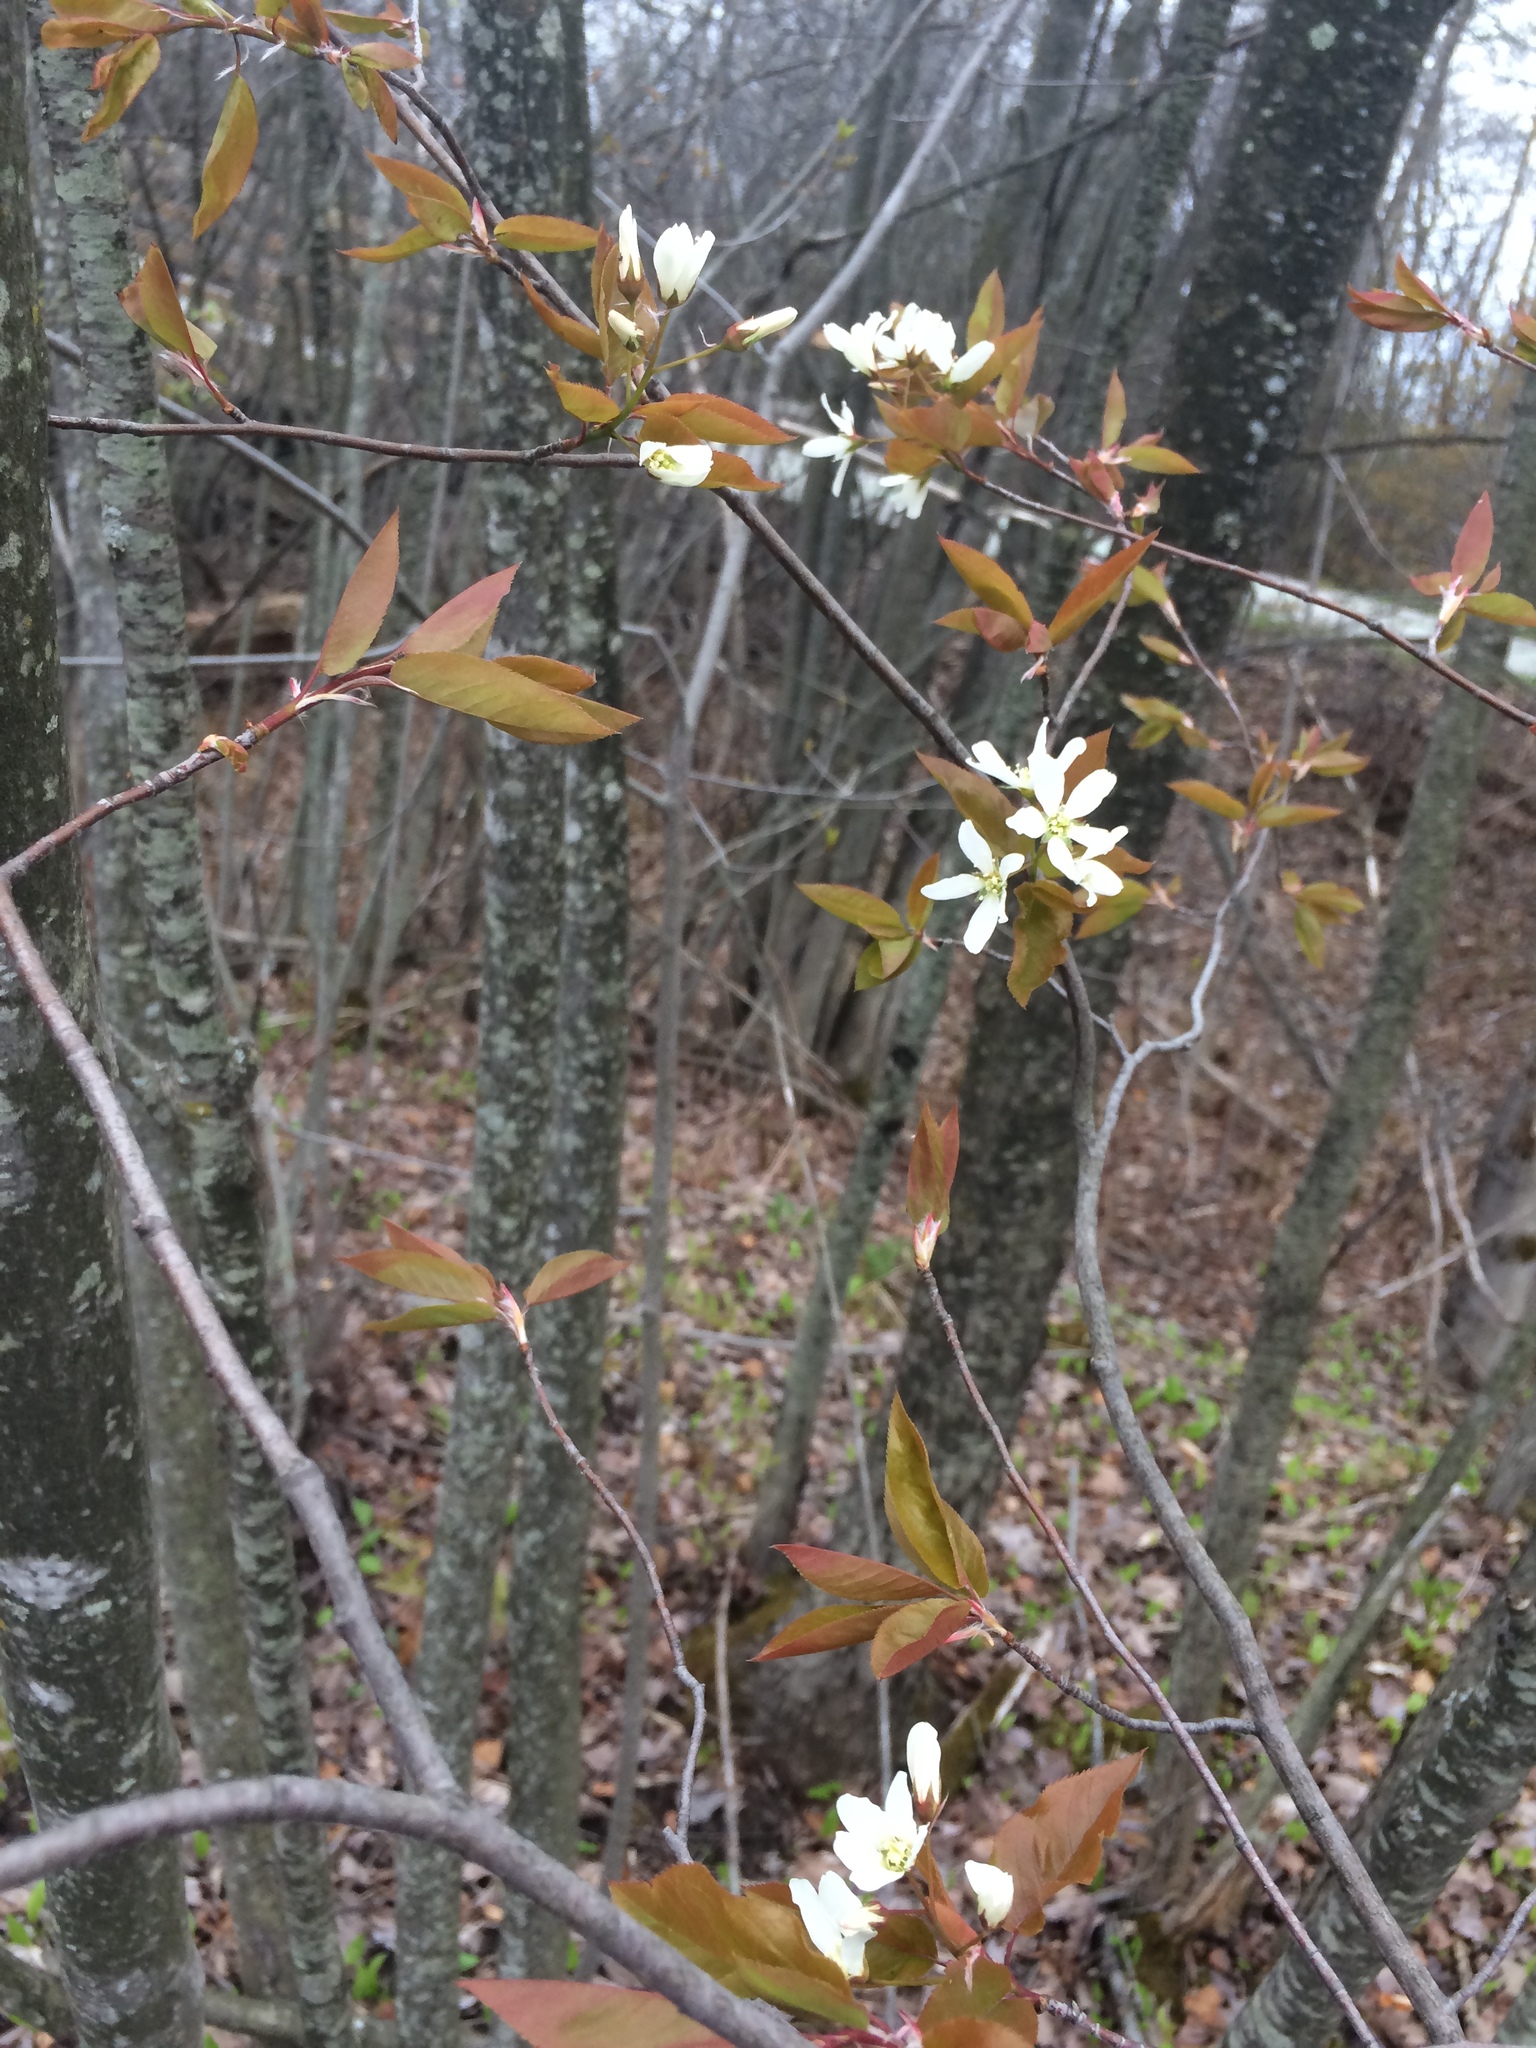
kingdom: Plantae
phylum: Tracheophyta
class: Magnoliopsida
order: Rosales
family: Rosaceae
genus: Amelanchier
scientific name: Amelanchier laevis
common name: Allegheny serviceberry
